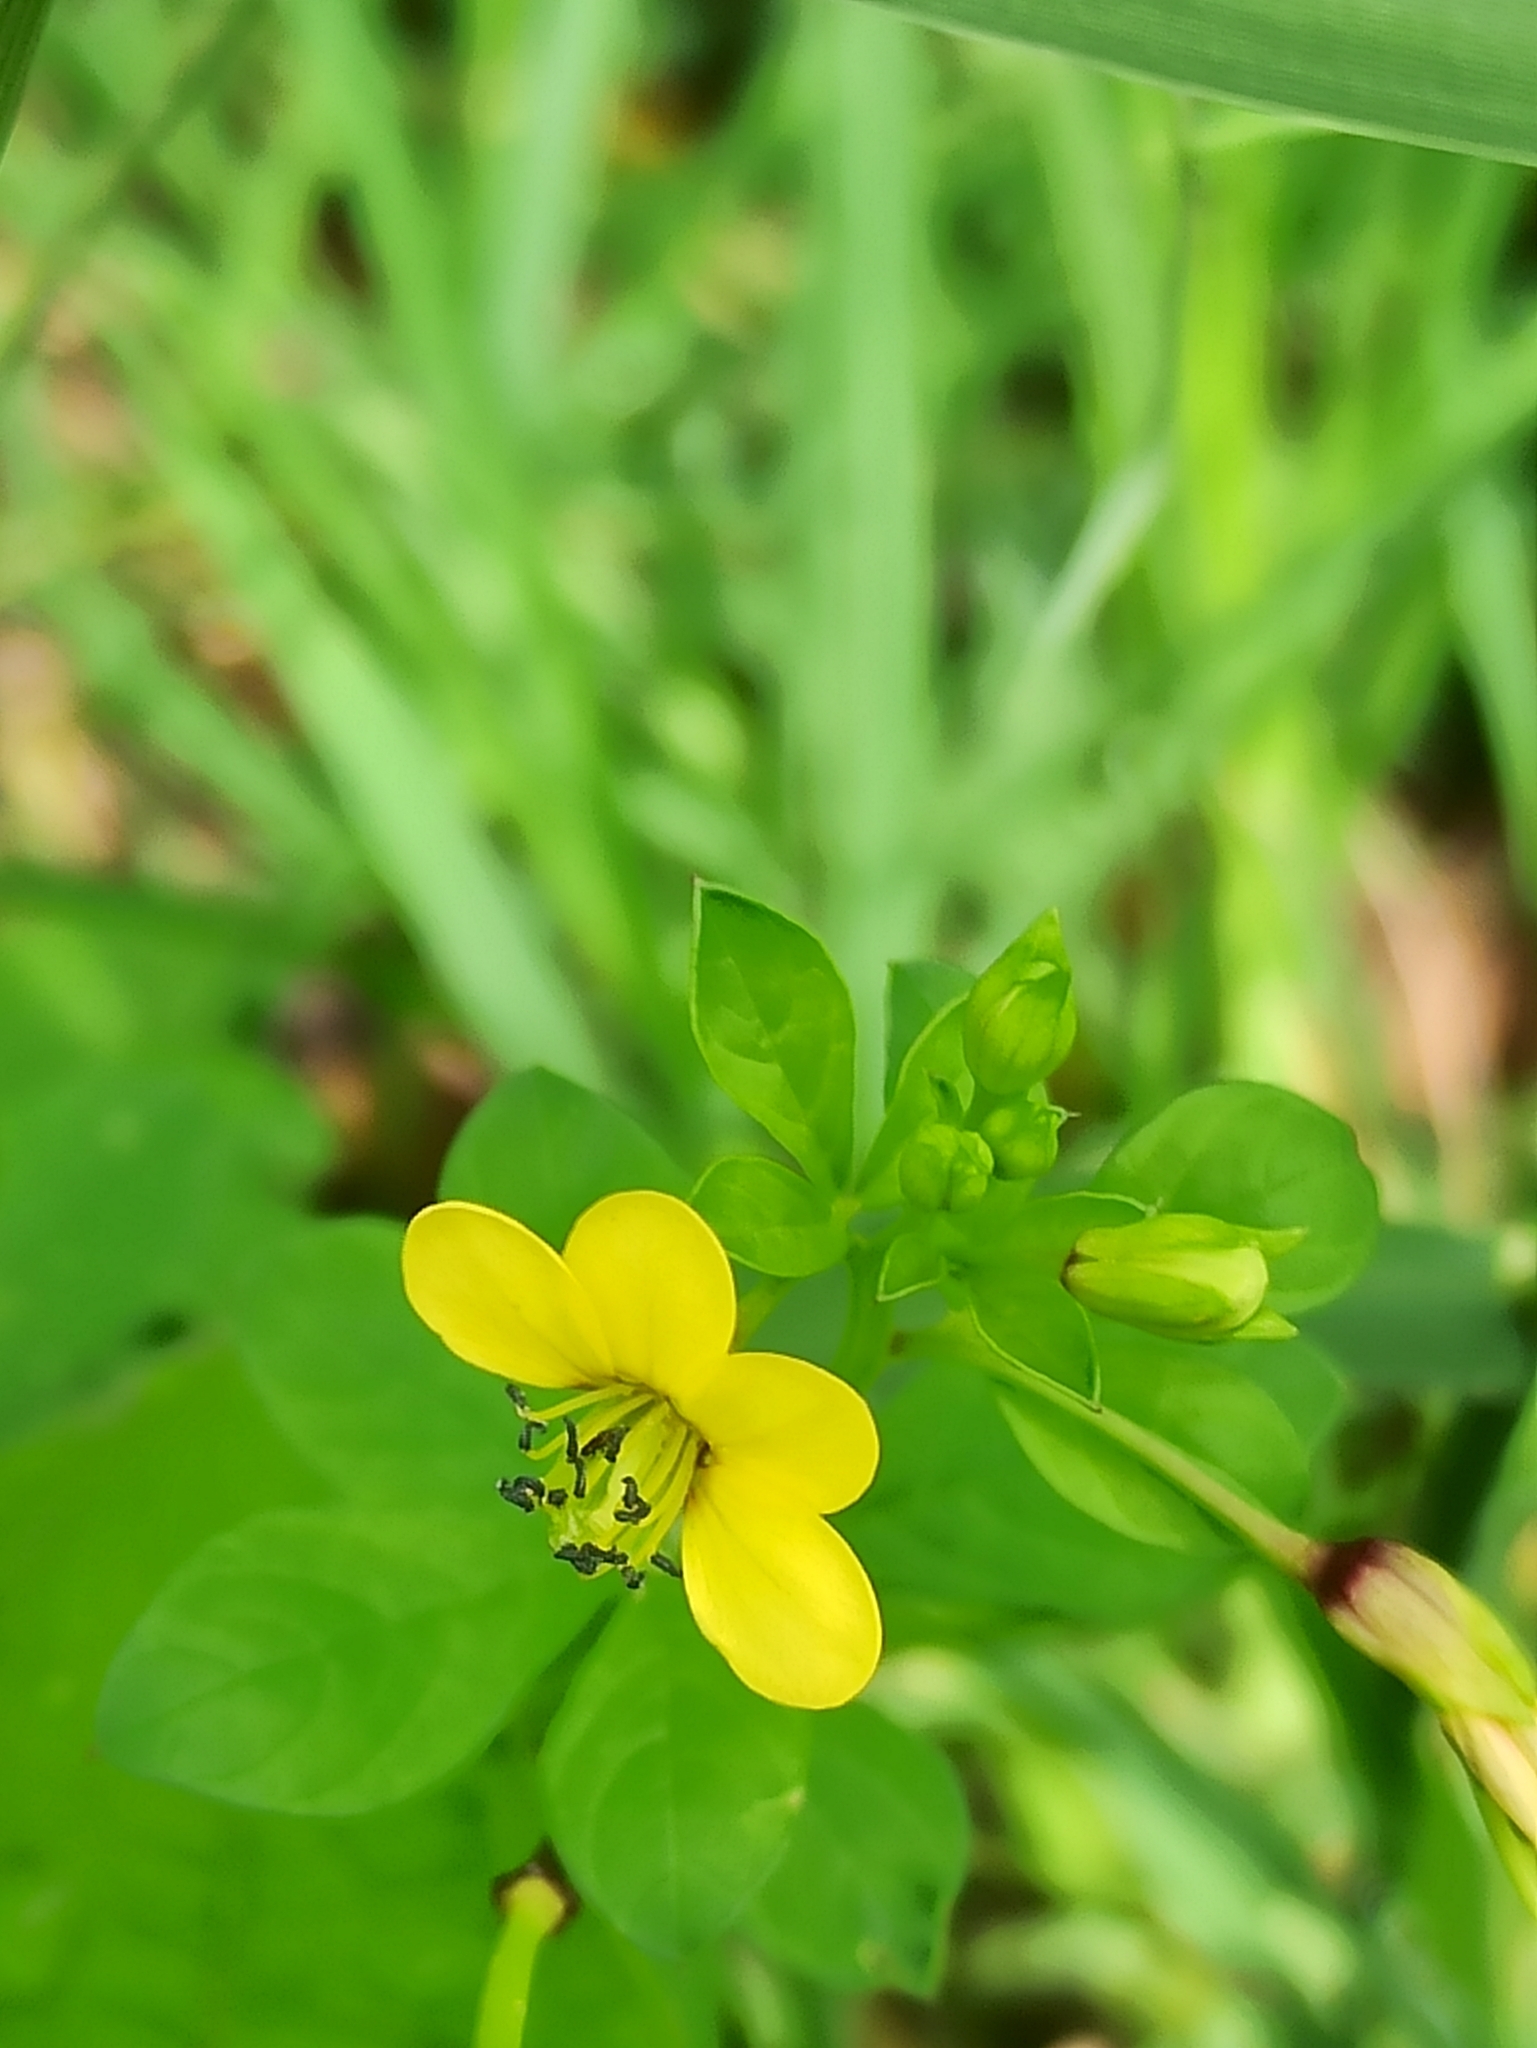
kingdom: Plantae
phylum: Tracheophyta
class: Magnoliopsida
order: Brassicales
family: Cleomaceae
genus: Arivela
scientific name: Arivela viscosa
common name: Asian spiderflower
